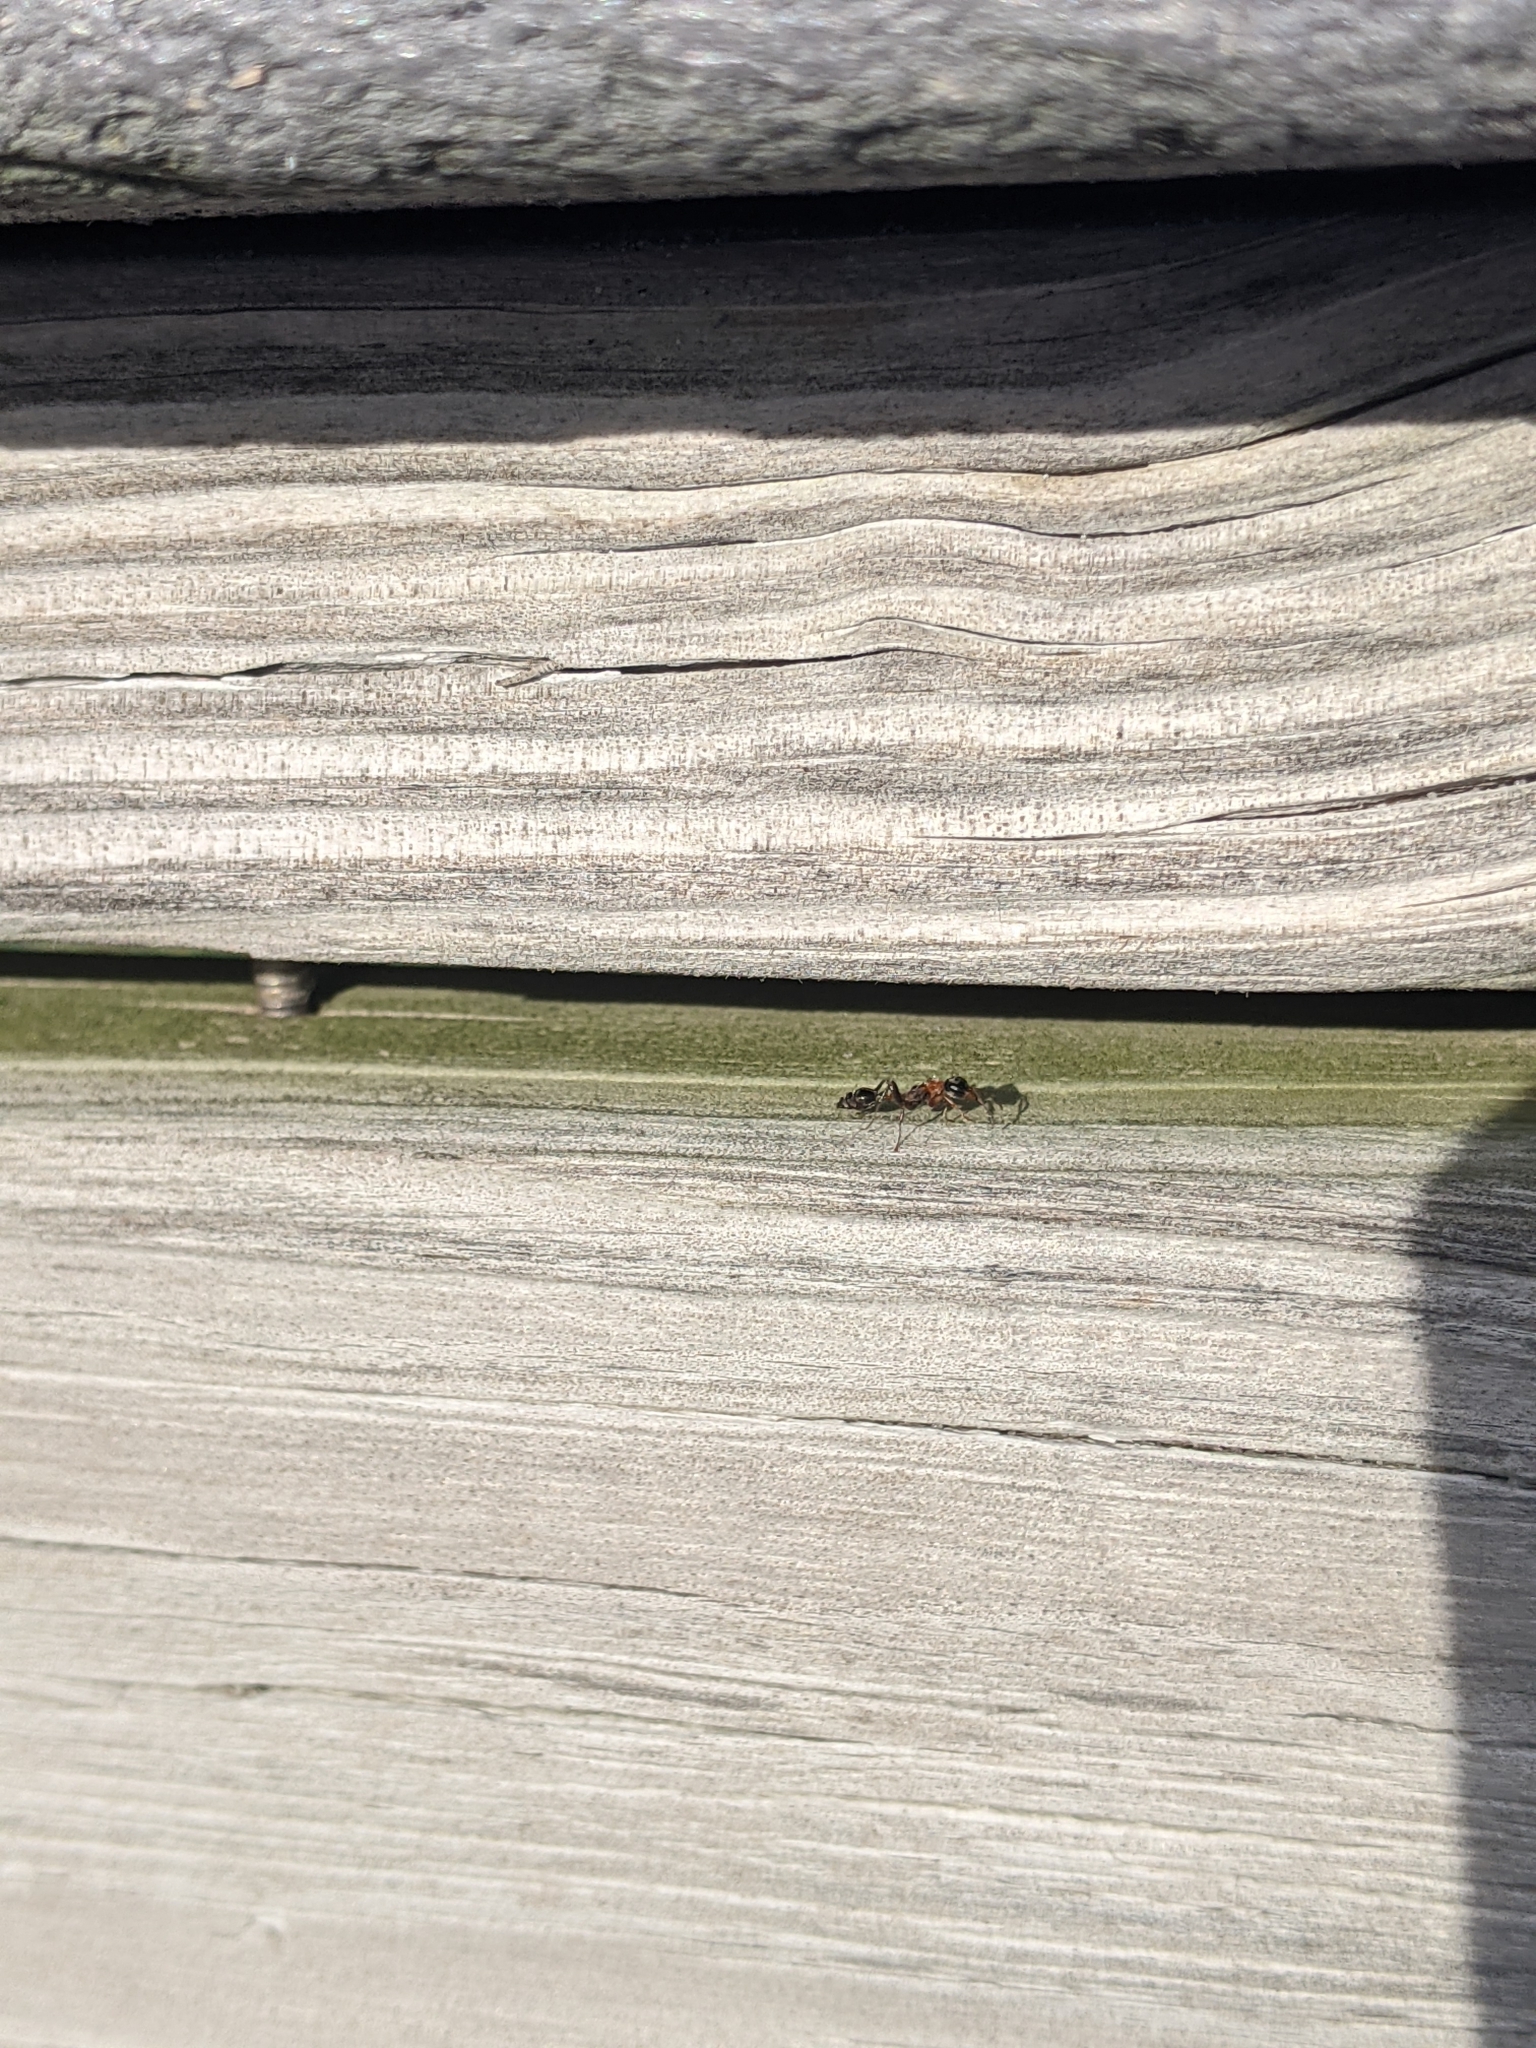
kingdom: Animalia
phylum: Arthropoda
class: Insecta
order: Hymenoptera
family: Formicidae
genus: Pseudomyrmex
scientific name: Pseudomyrmex gracilis
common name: Graceful twig ant
